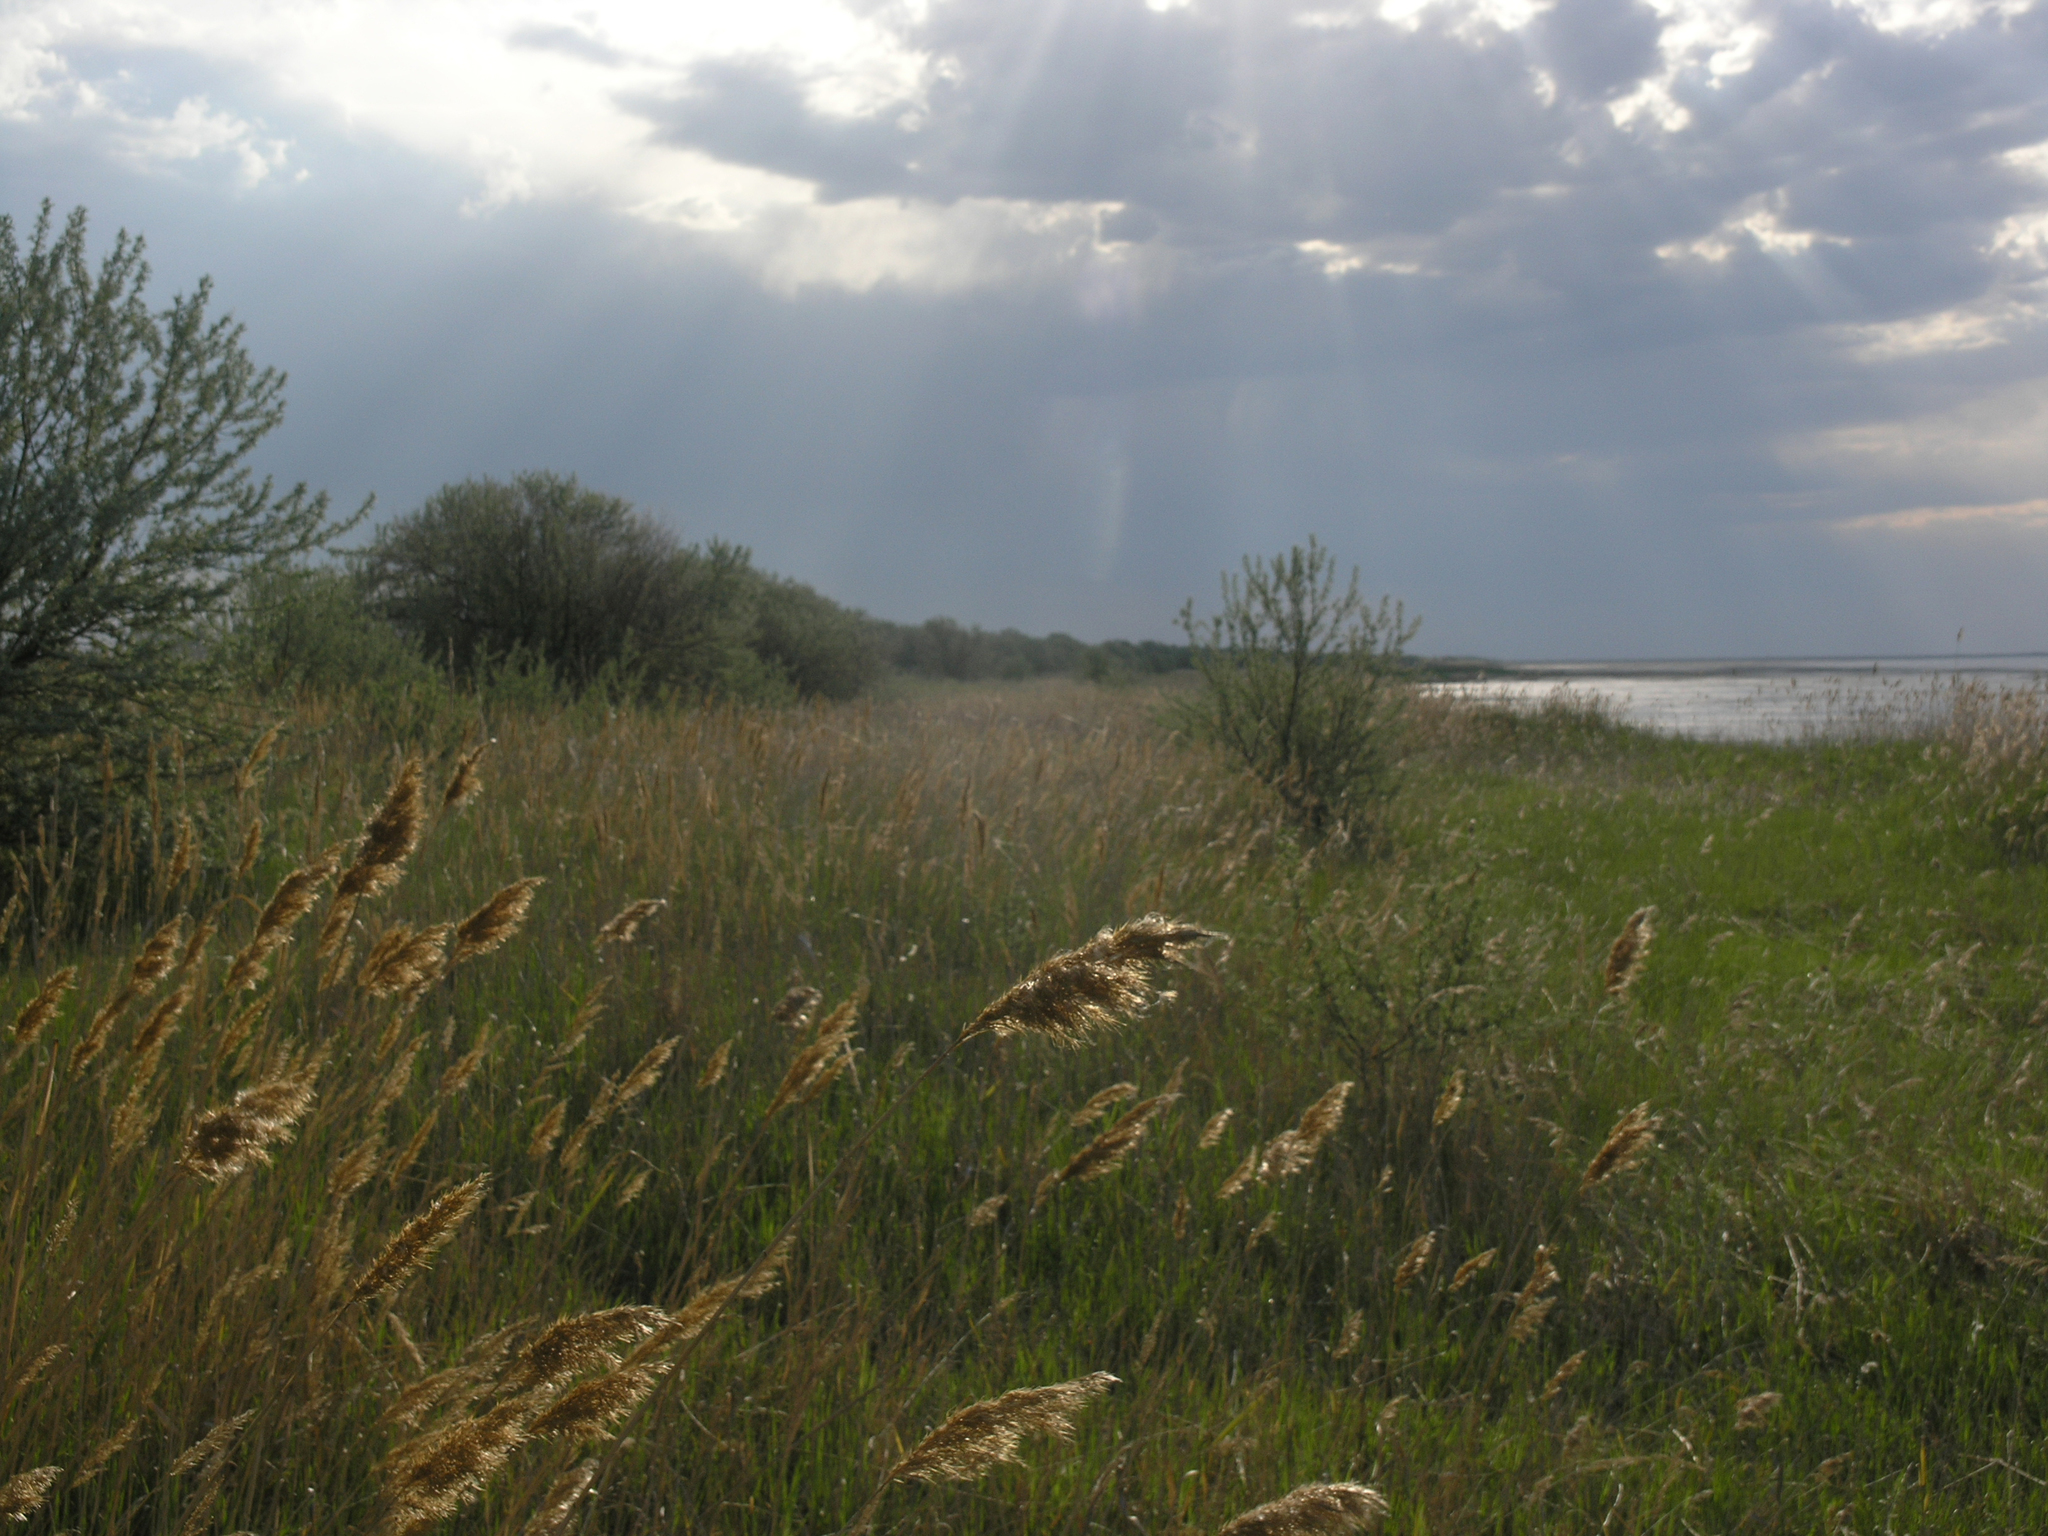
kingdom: Plantae
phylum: Tracheophyta
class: Liliopsida
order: Poales
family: Poaceae
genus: Phragmites
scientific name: Phragmites australis
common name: Common reed
